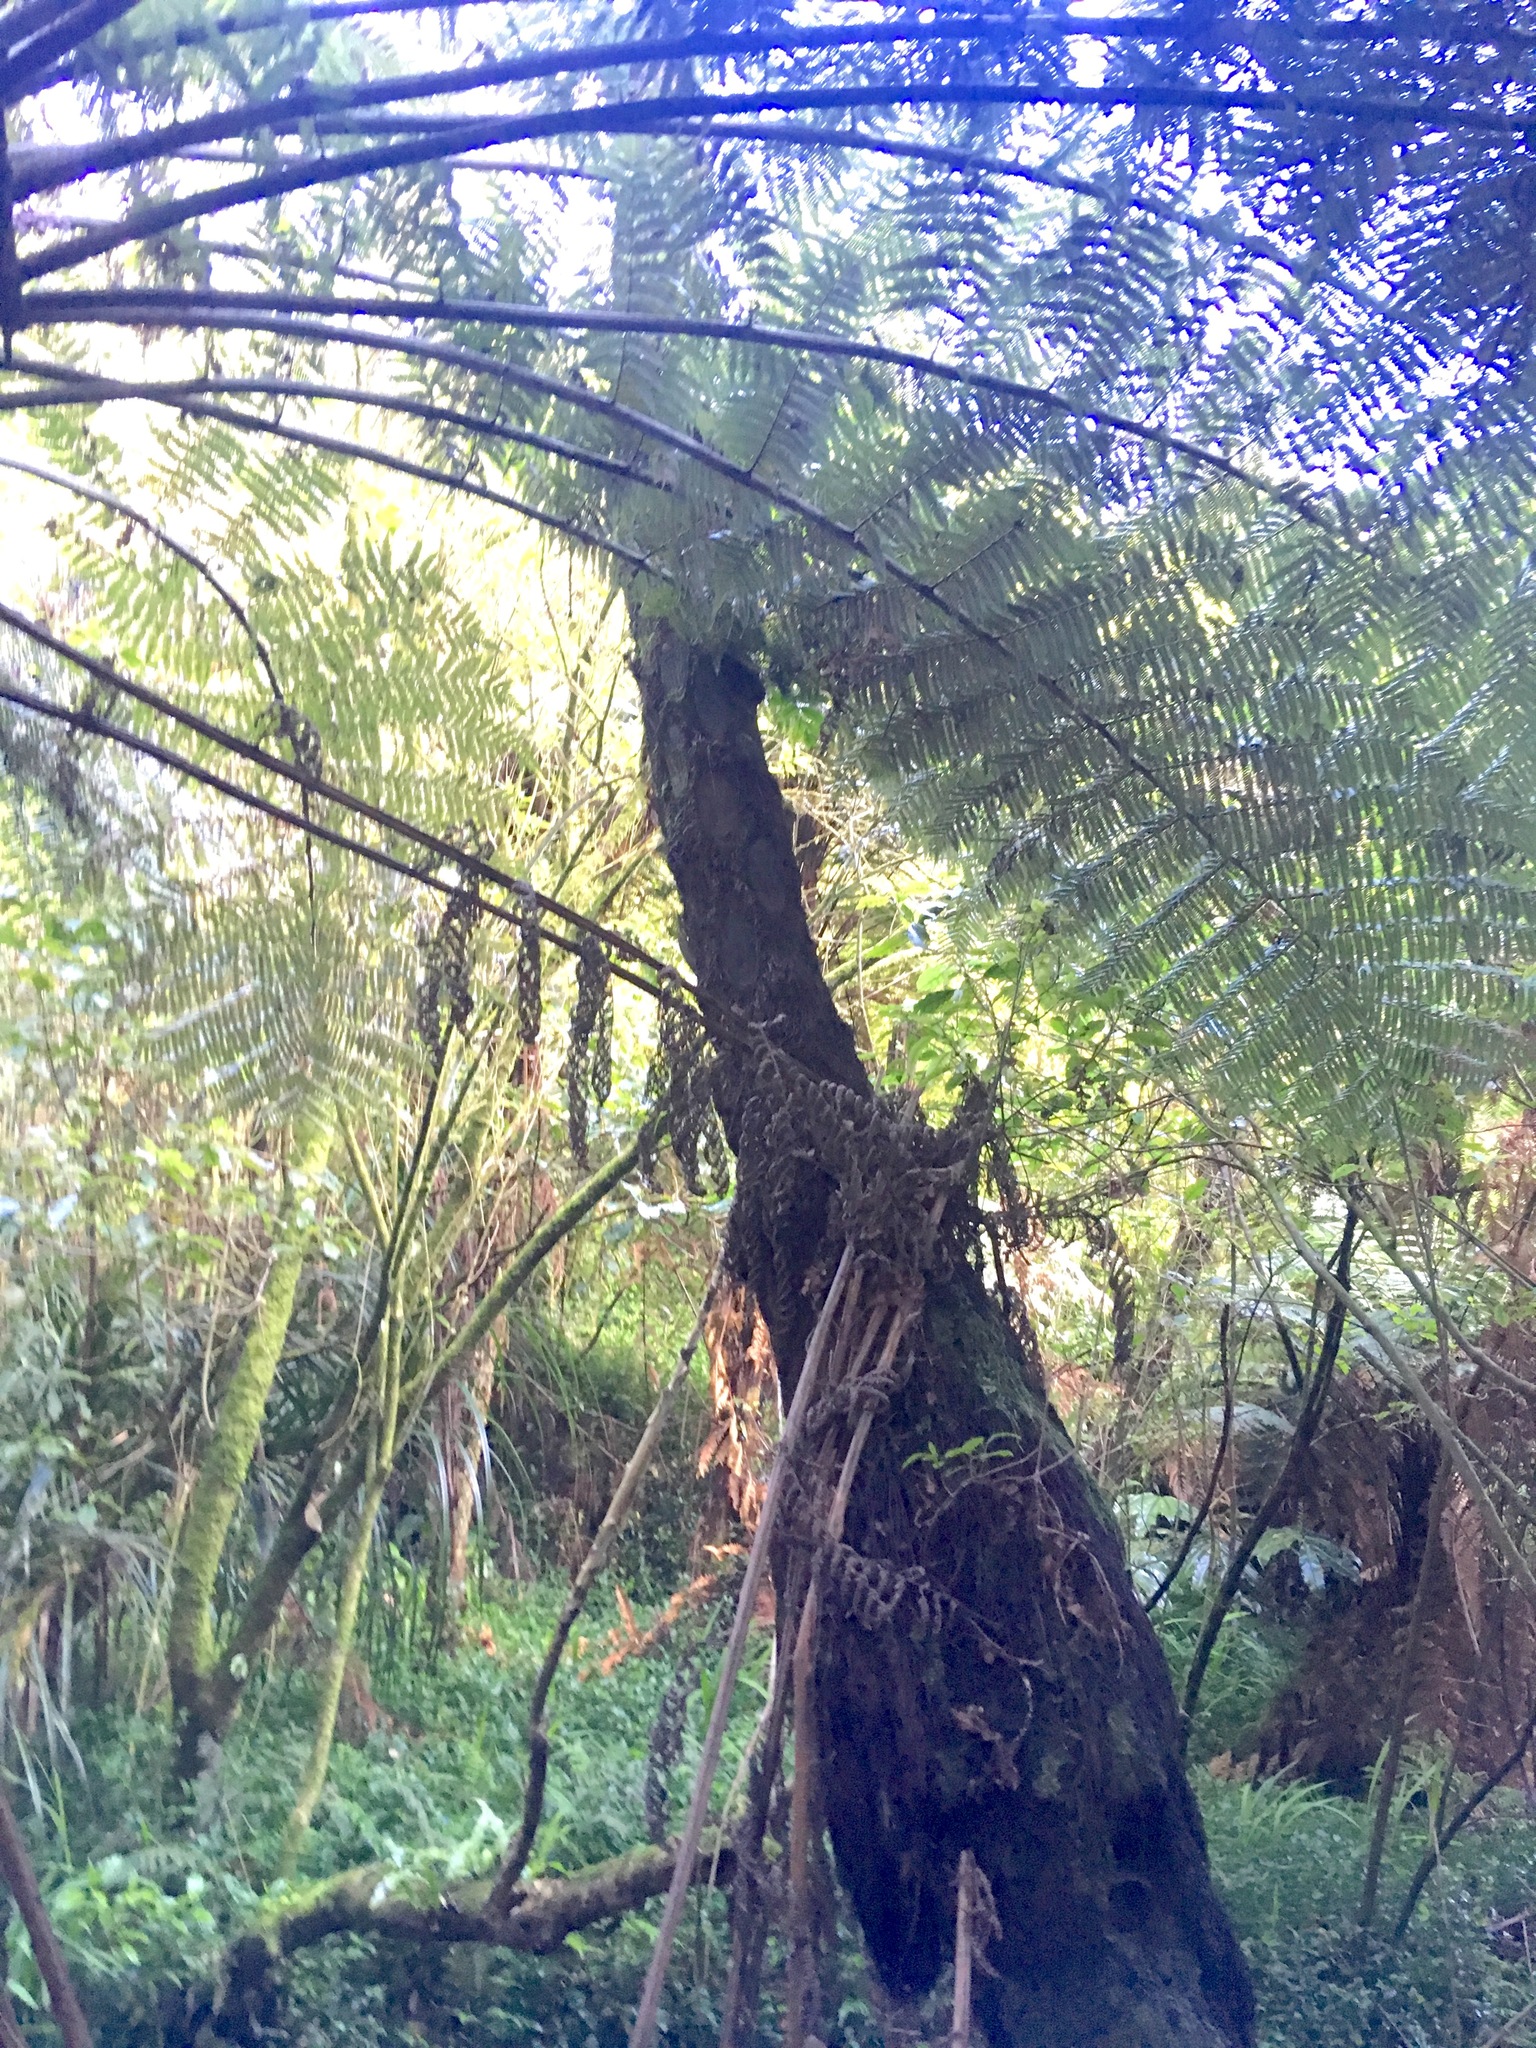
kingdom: Plantae
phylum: Tracheophyta
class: Polypodiopsida
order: Cyatheales
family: Cyatheaceae
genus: Sphaeropteris
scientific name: Sphaeropteris medullaris
